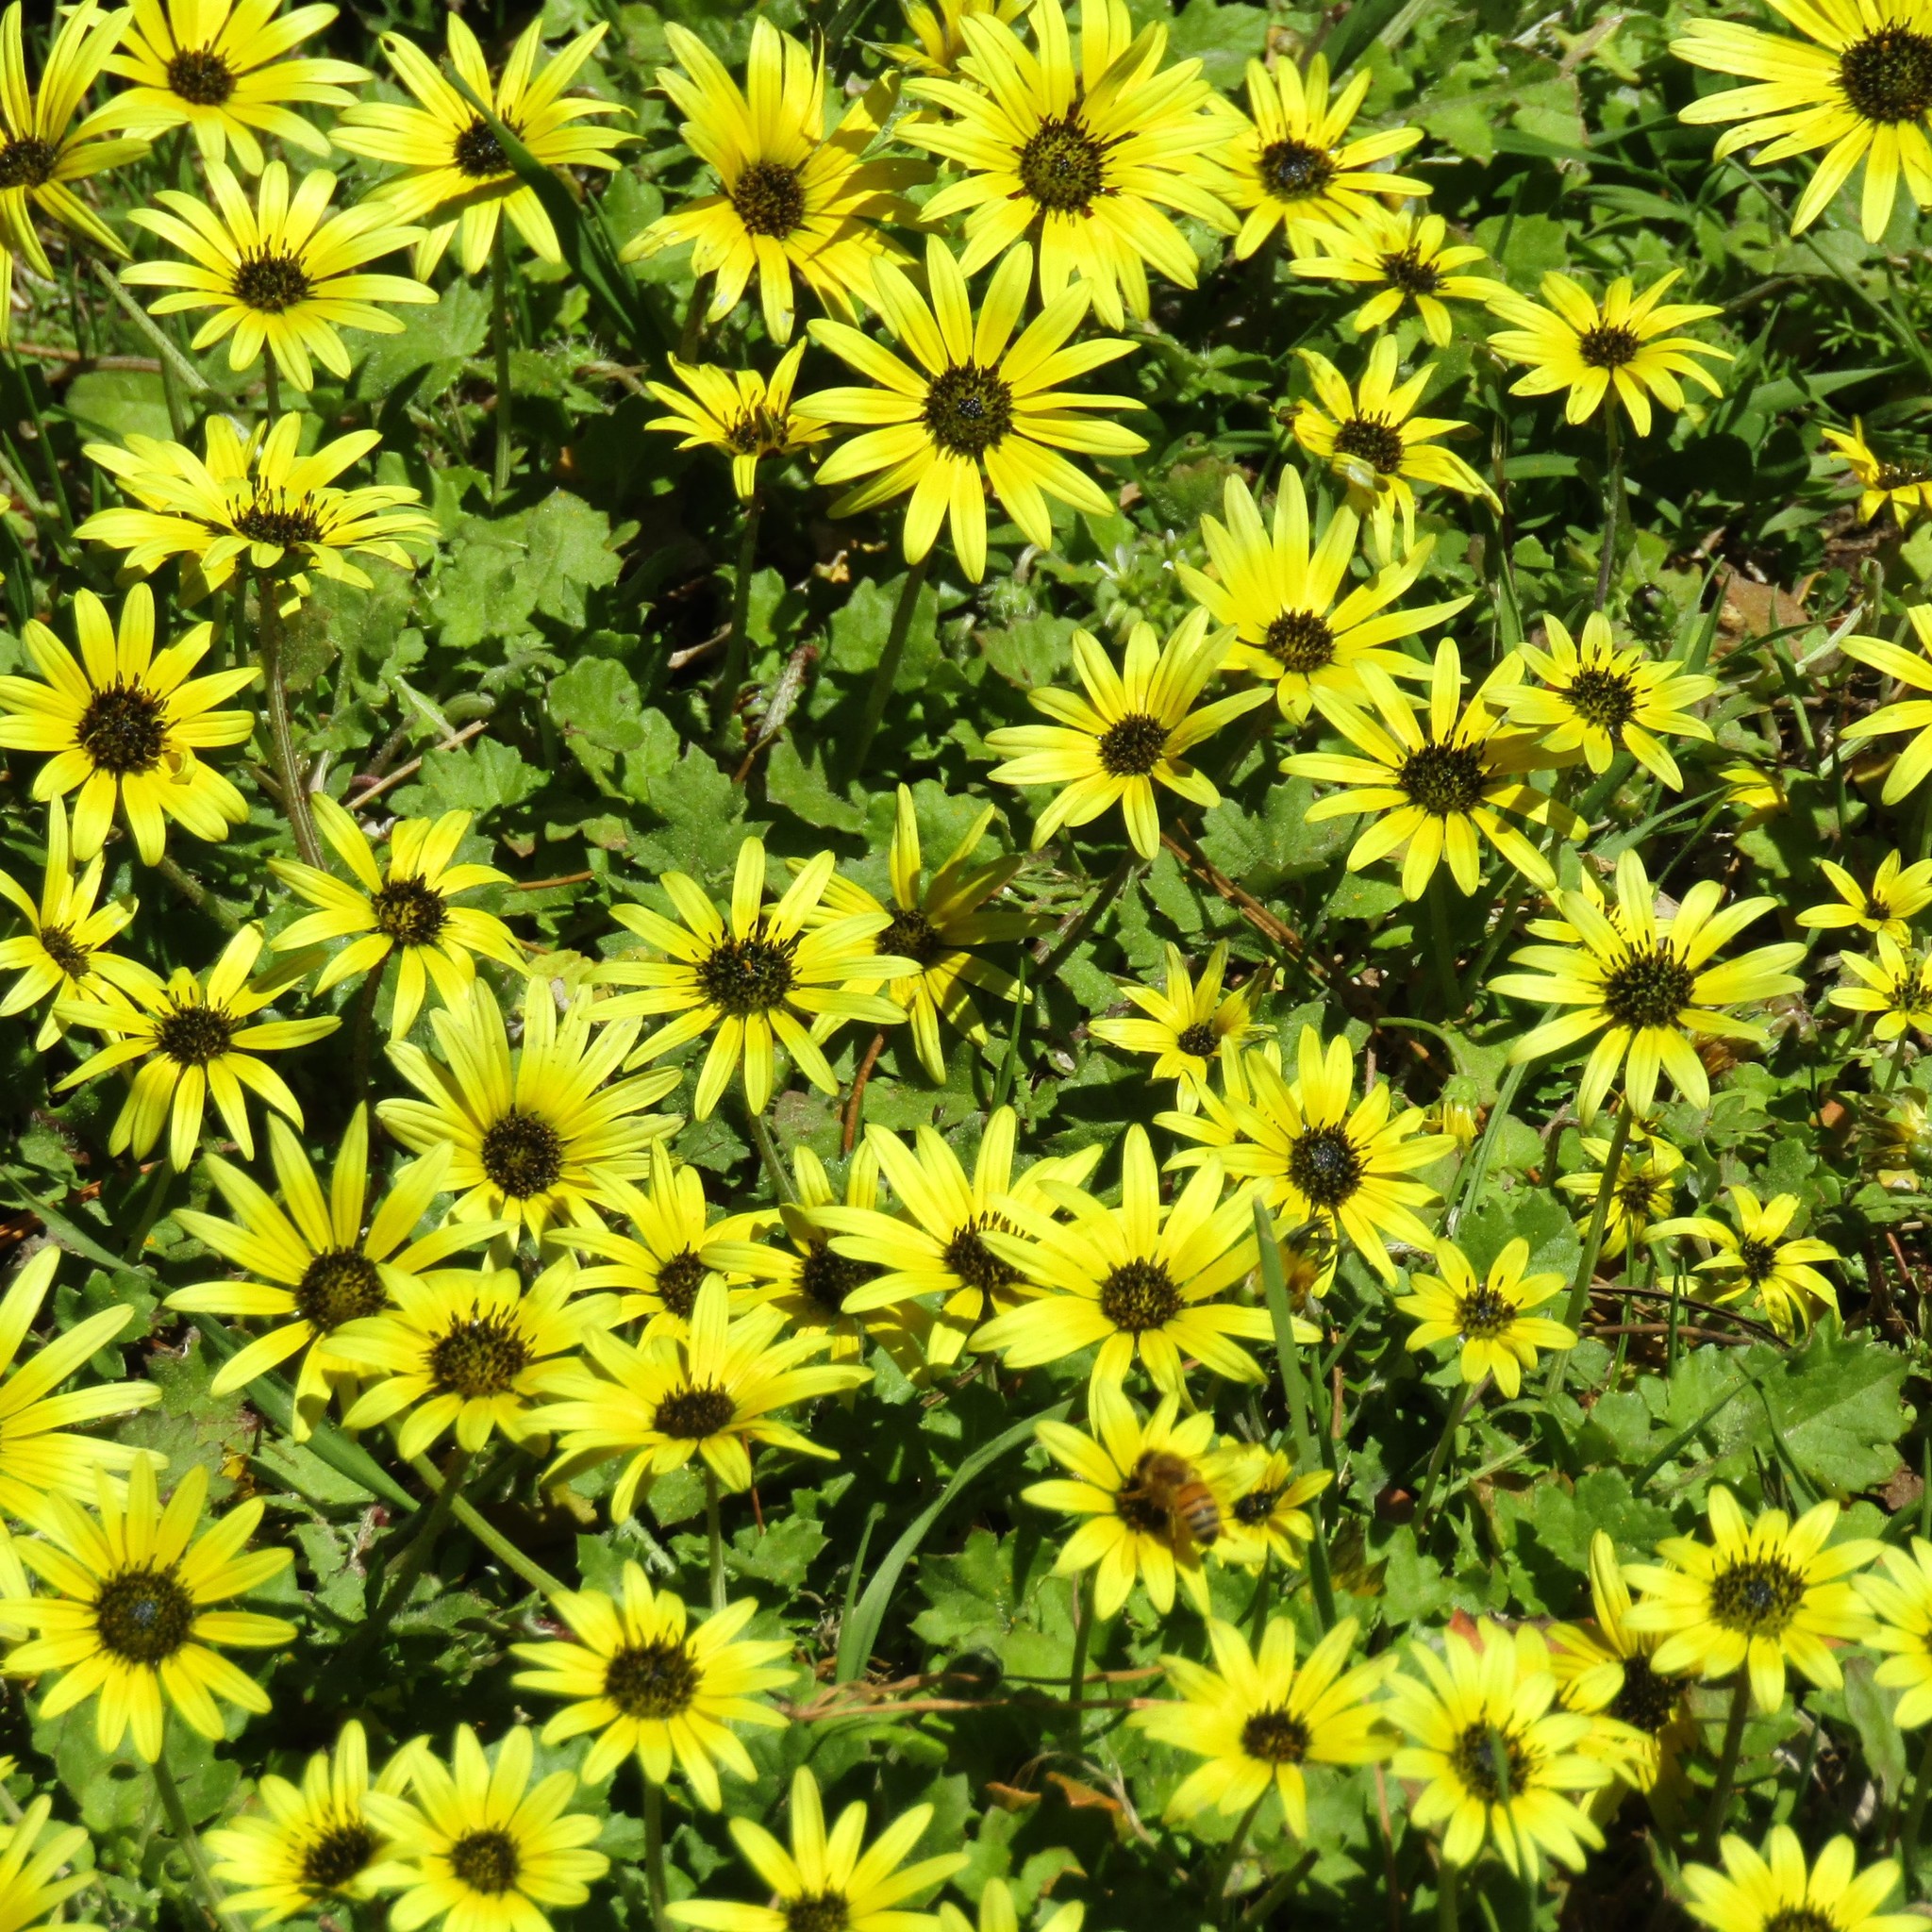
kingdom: Plantae
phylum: Tracheophyta
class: Magnoliopsida
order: Asterales
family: Asteraceae
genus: Arctotheca
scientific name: Arctotheca calendula
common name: Capeweed
